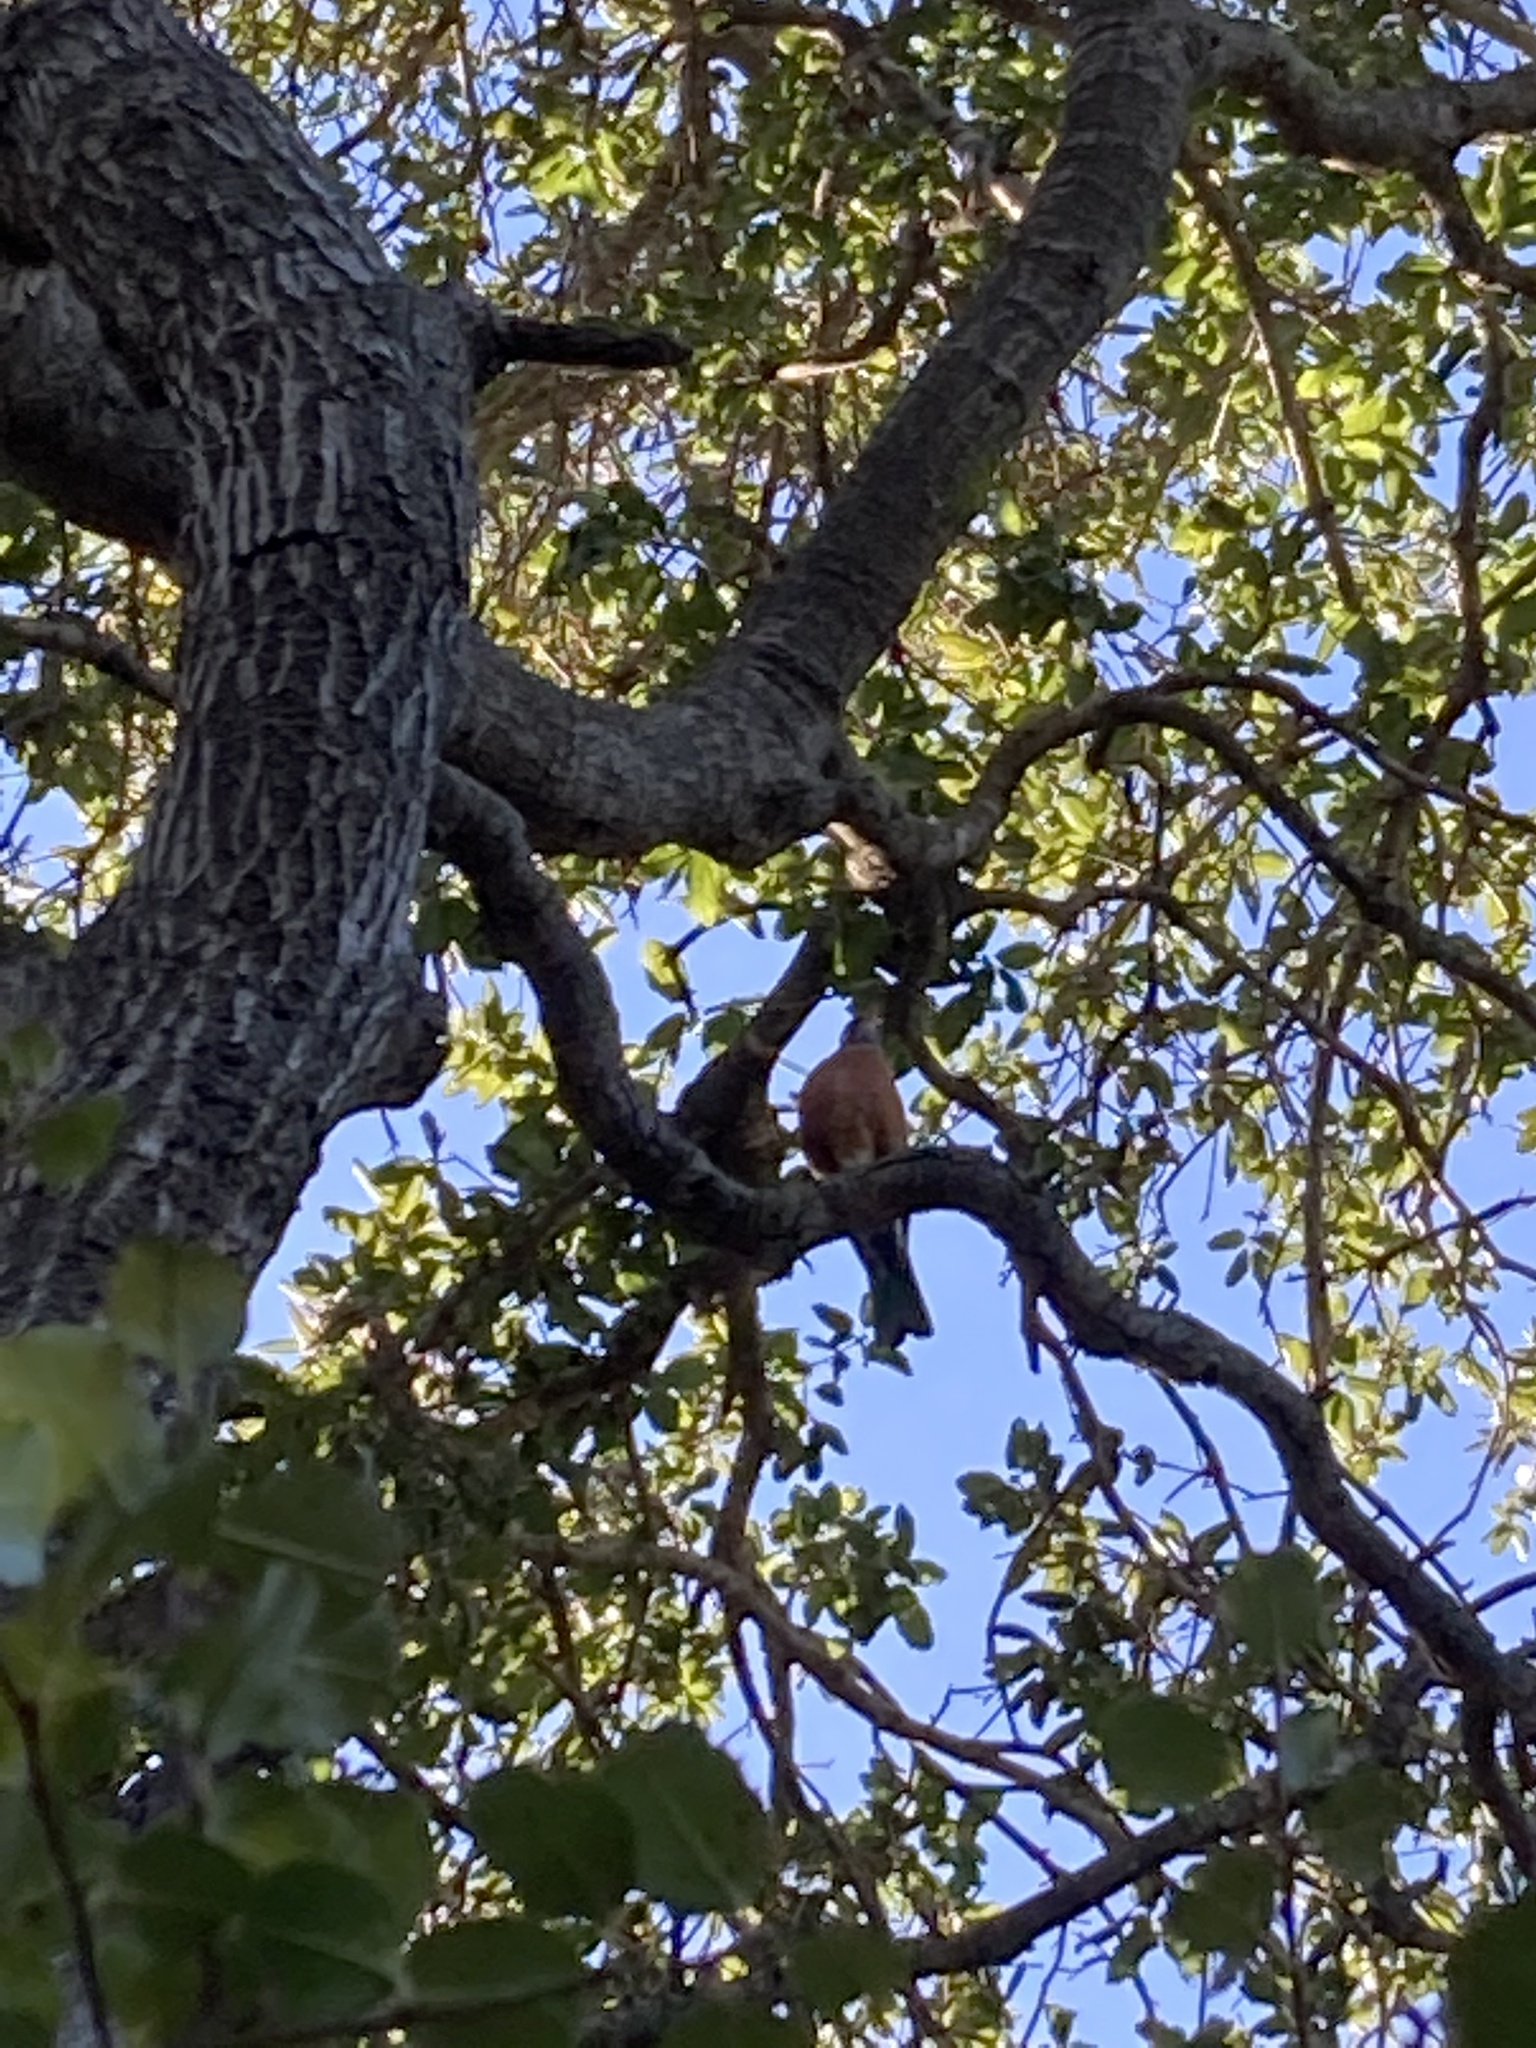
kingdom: Animalia
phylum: Chordata
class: Aves
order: Passeriformes
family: Turdidae
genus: Turdus
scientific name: Turdus migratorius
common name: American robin
